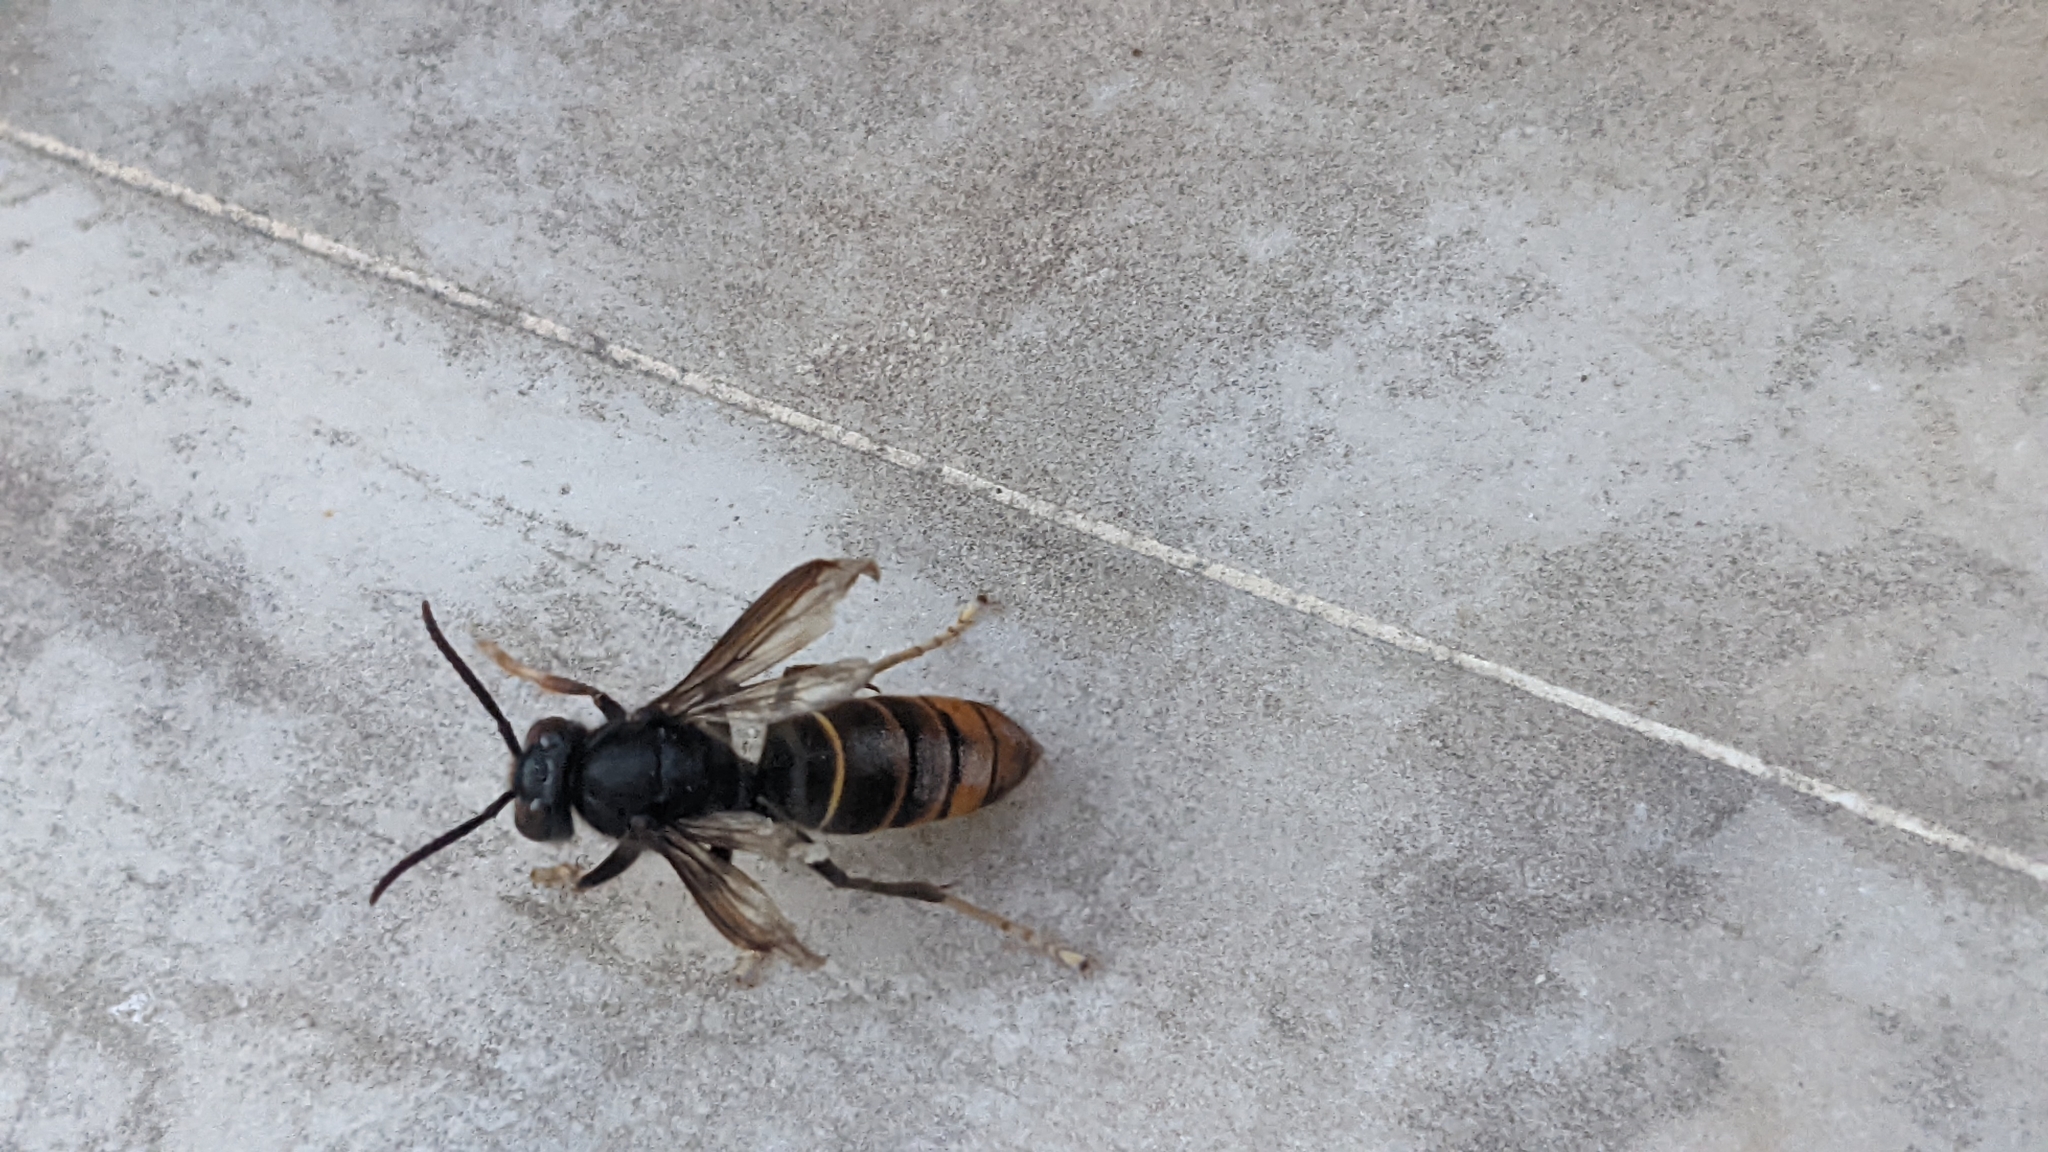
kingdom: Animalia
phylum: Arthropoda
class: Insecta
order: Hymenoptera
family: Vespidae
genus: Vespa
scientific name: Vespa velutina
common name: Asian hornet
